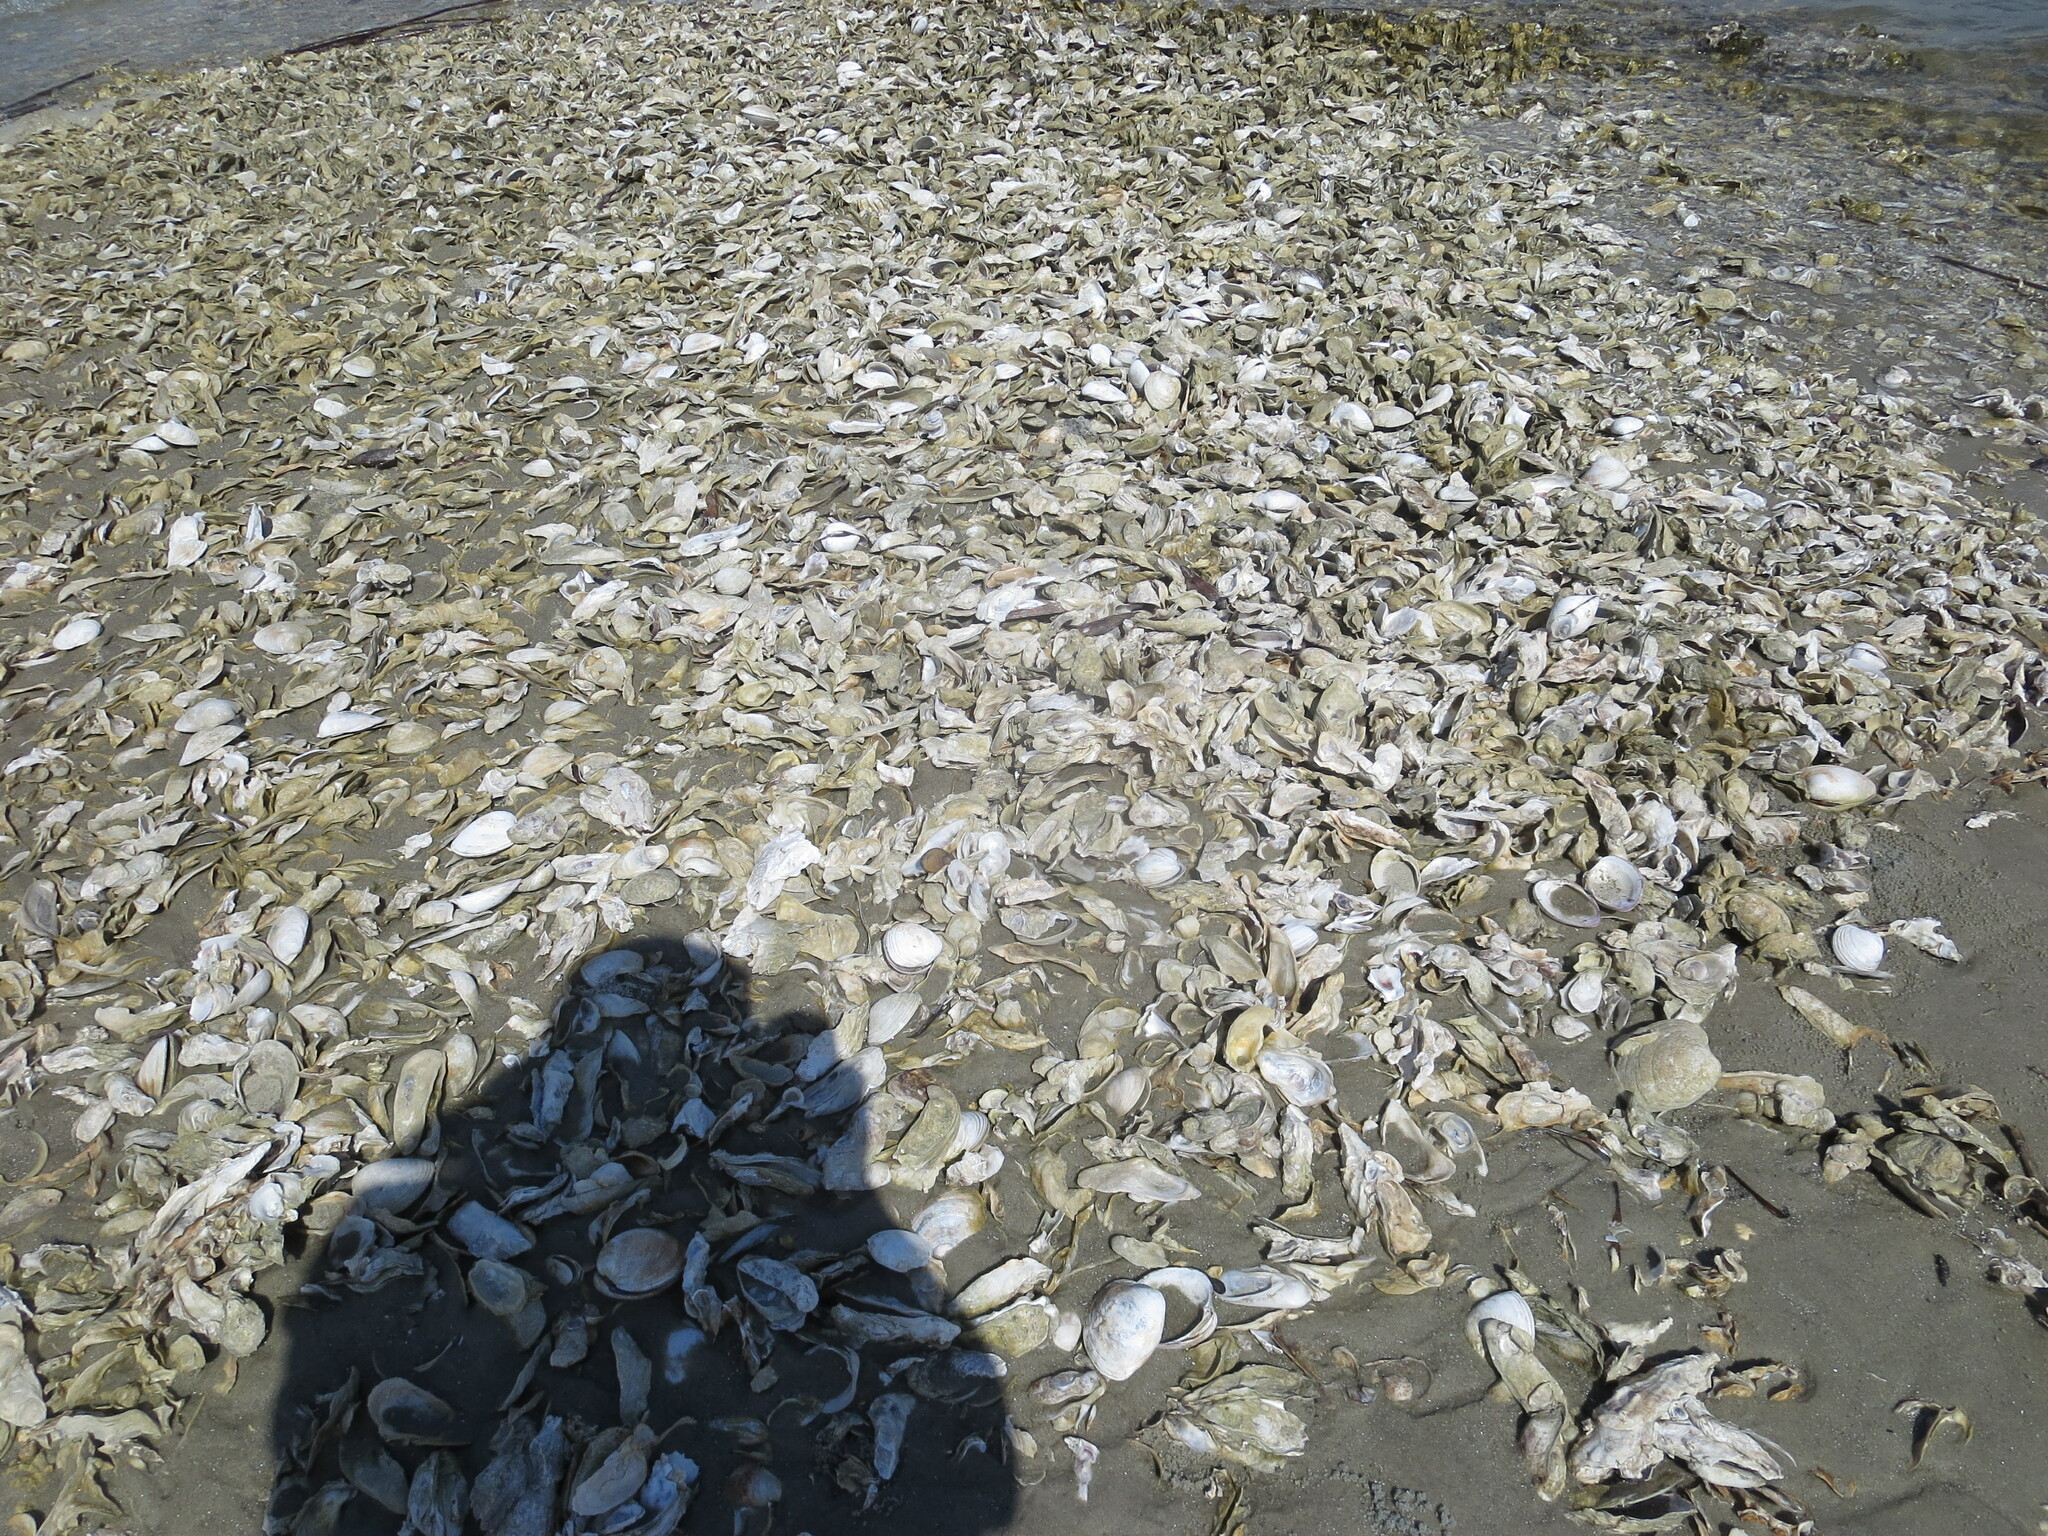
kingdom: Animalia
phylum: Mollusca
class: Bivalvia
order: Venerida
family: Veneridae
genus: Mercenaria
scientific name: Mercenaria mercenaria
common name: American hard-shelled clam
